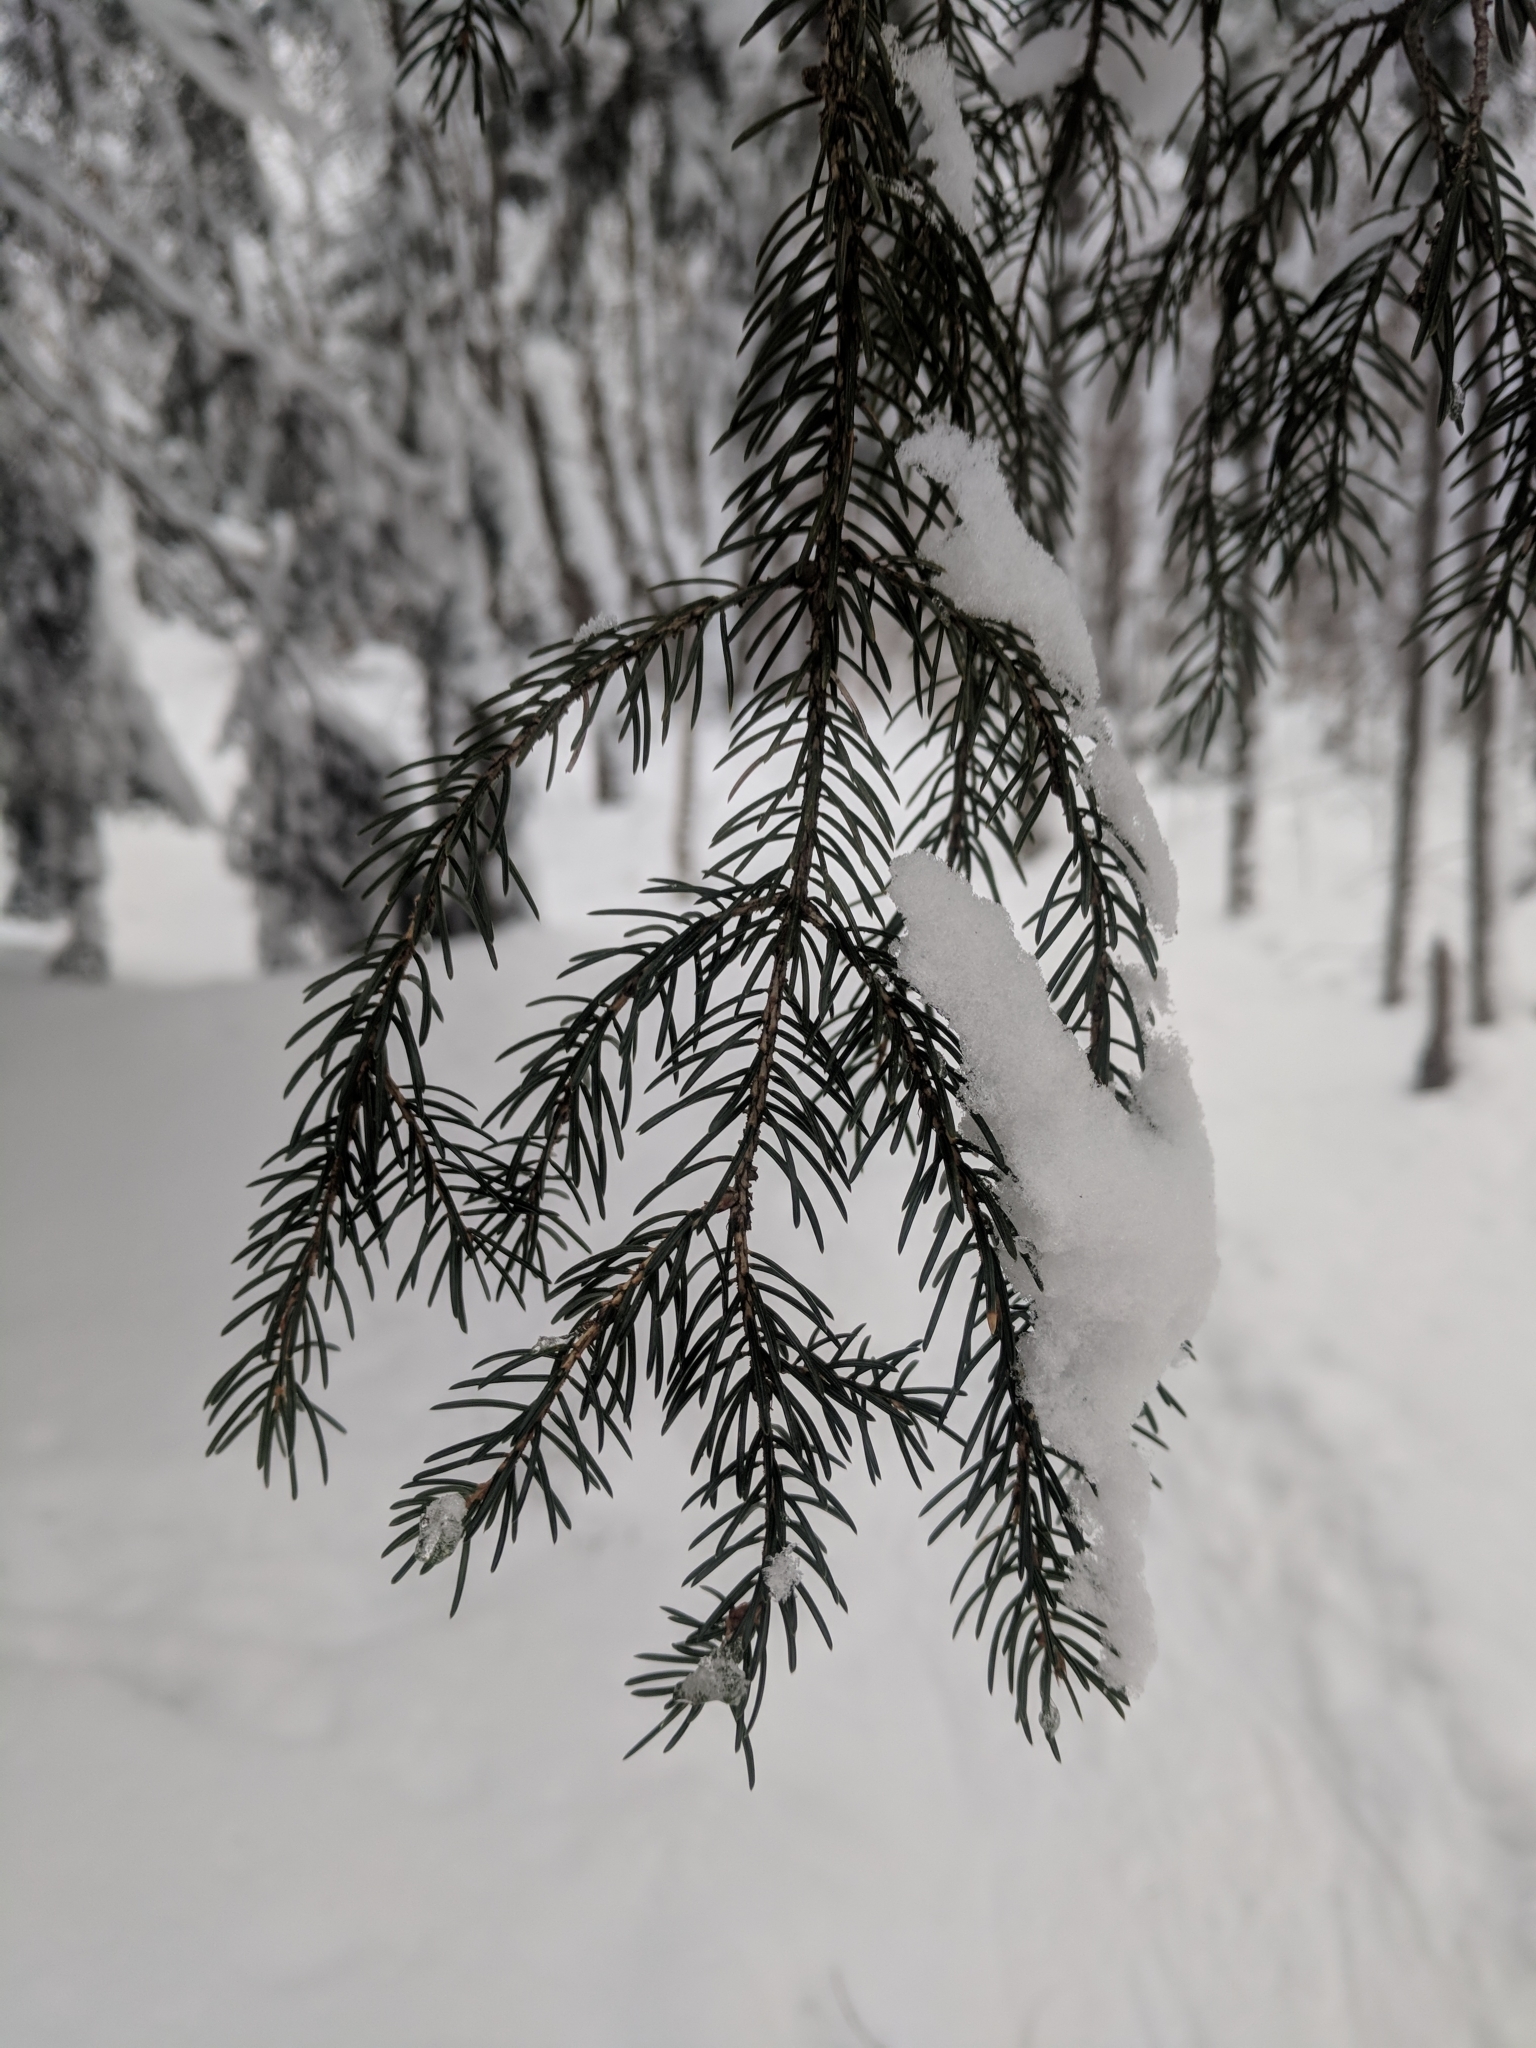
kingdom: Plantae
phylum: Tracheophyta
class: Pinopsida
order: Pinales
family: Pinaceae
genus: Picea
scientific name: Picea rubens
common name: Red spruce
